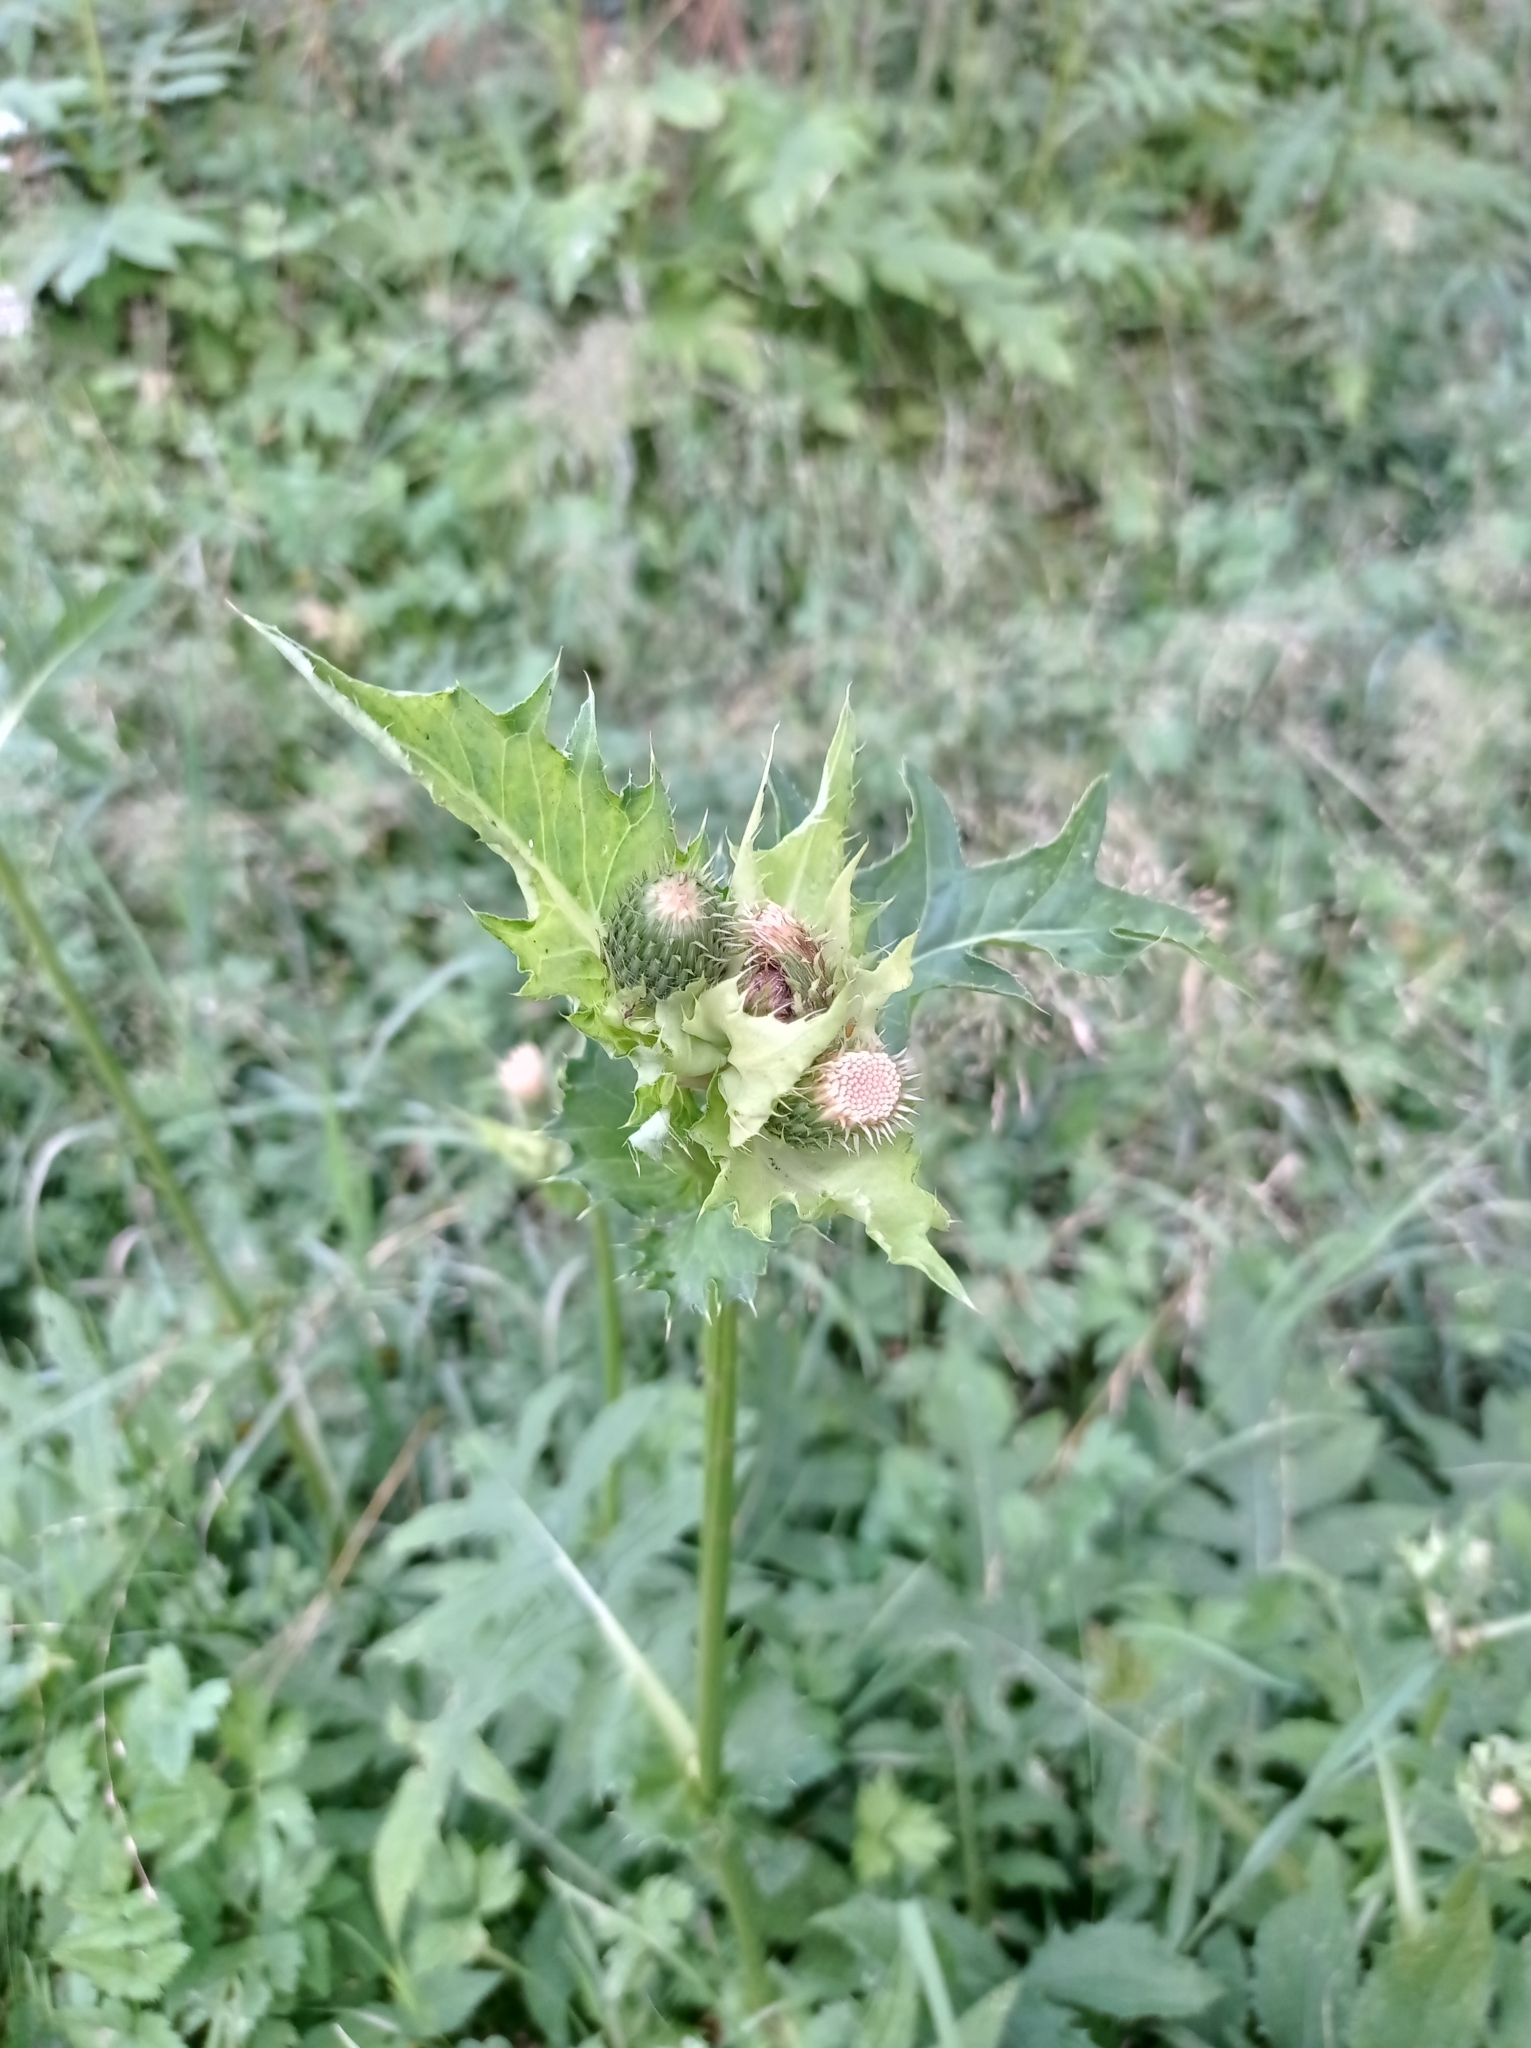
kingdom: Plantae
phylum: Tracheophyta
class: Magnoliopsida
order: Asterales
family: Asteraceae
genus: Cirsium
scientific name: Cirsium oleraceum
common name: Cabbage thistle
